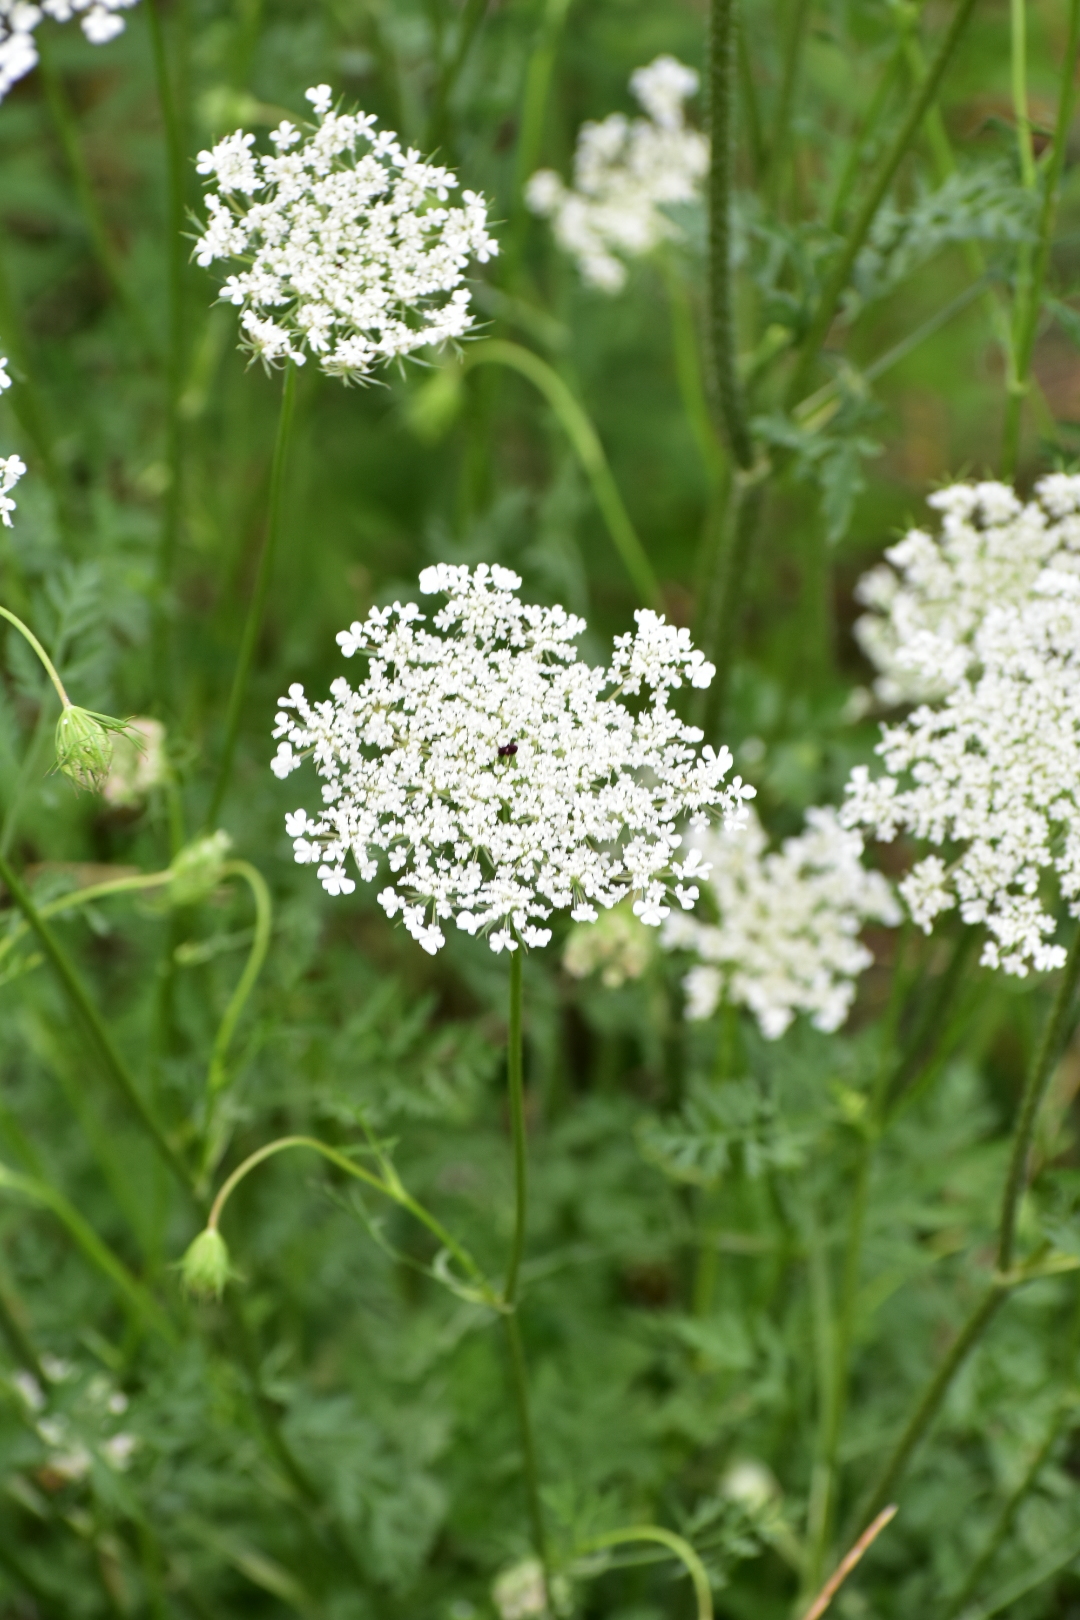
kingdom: Plantae
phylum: Tracheophyta
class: Magnoliopsida
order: Apiales
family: Apiaceae
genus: Daucus
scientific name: Daucus carota
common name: Wild carrot
